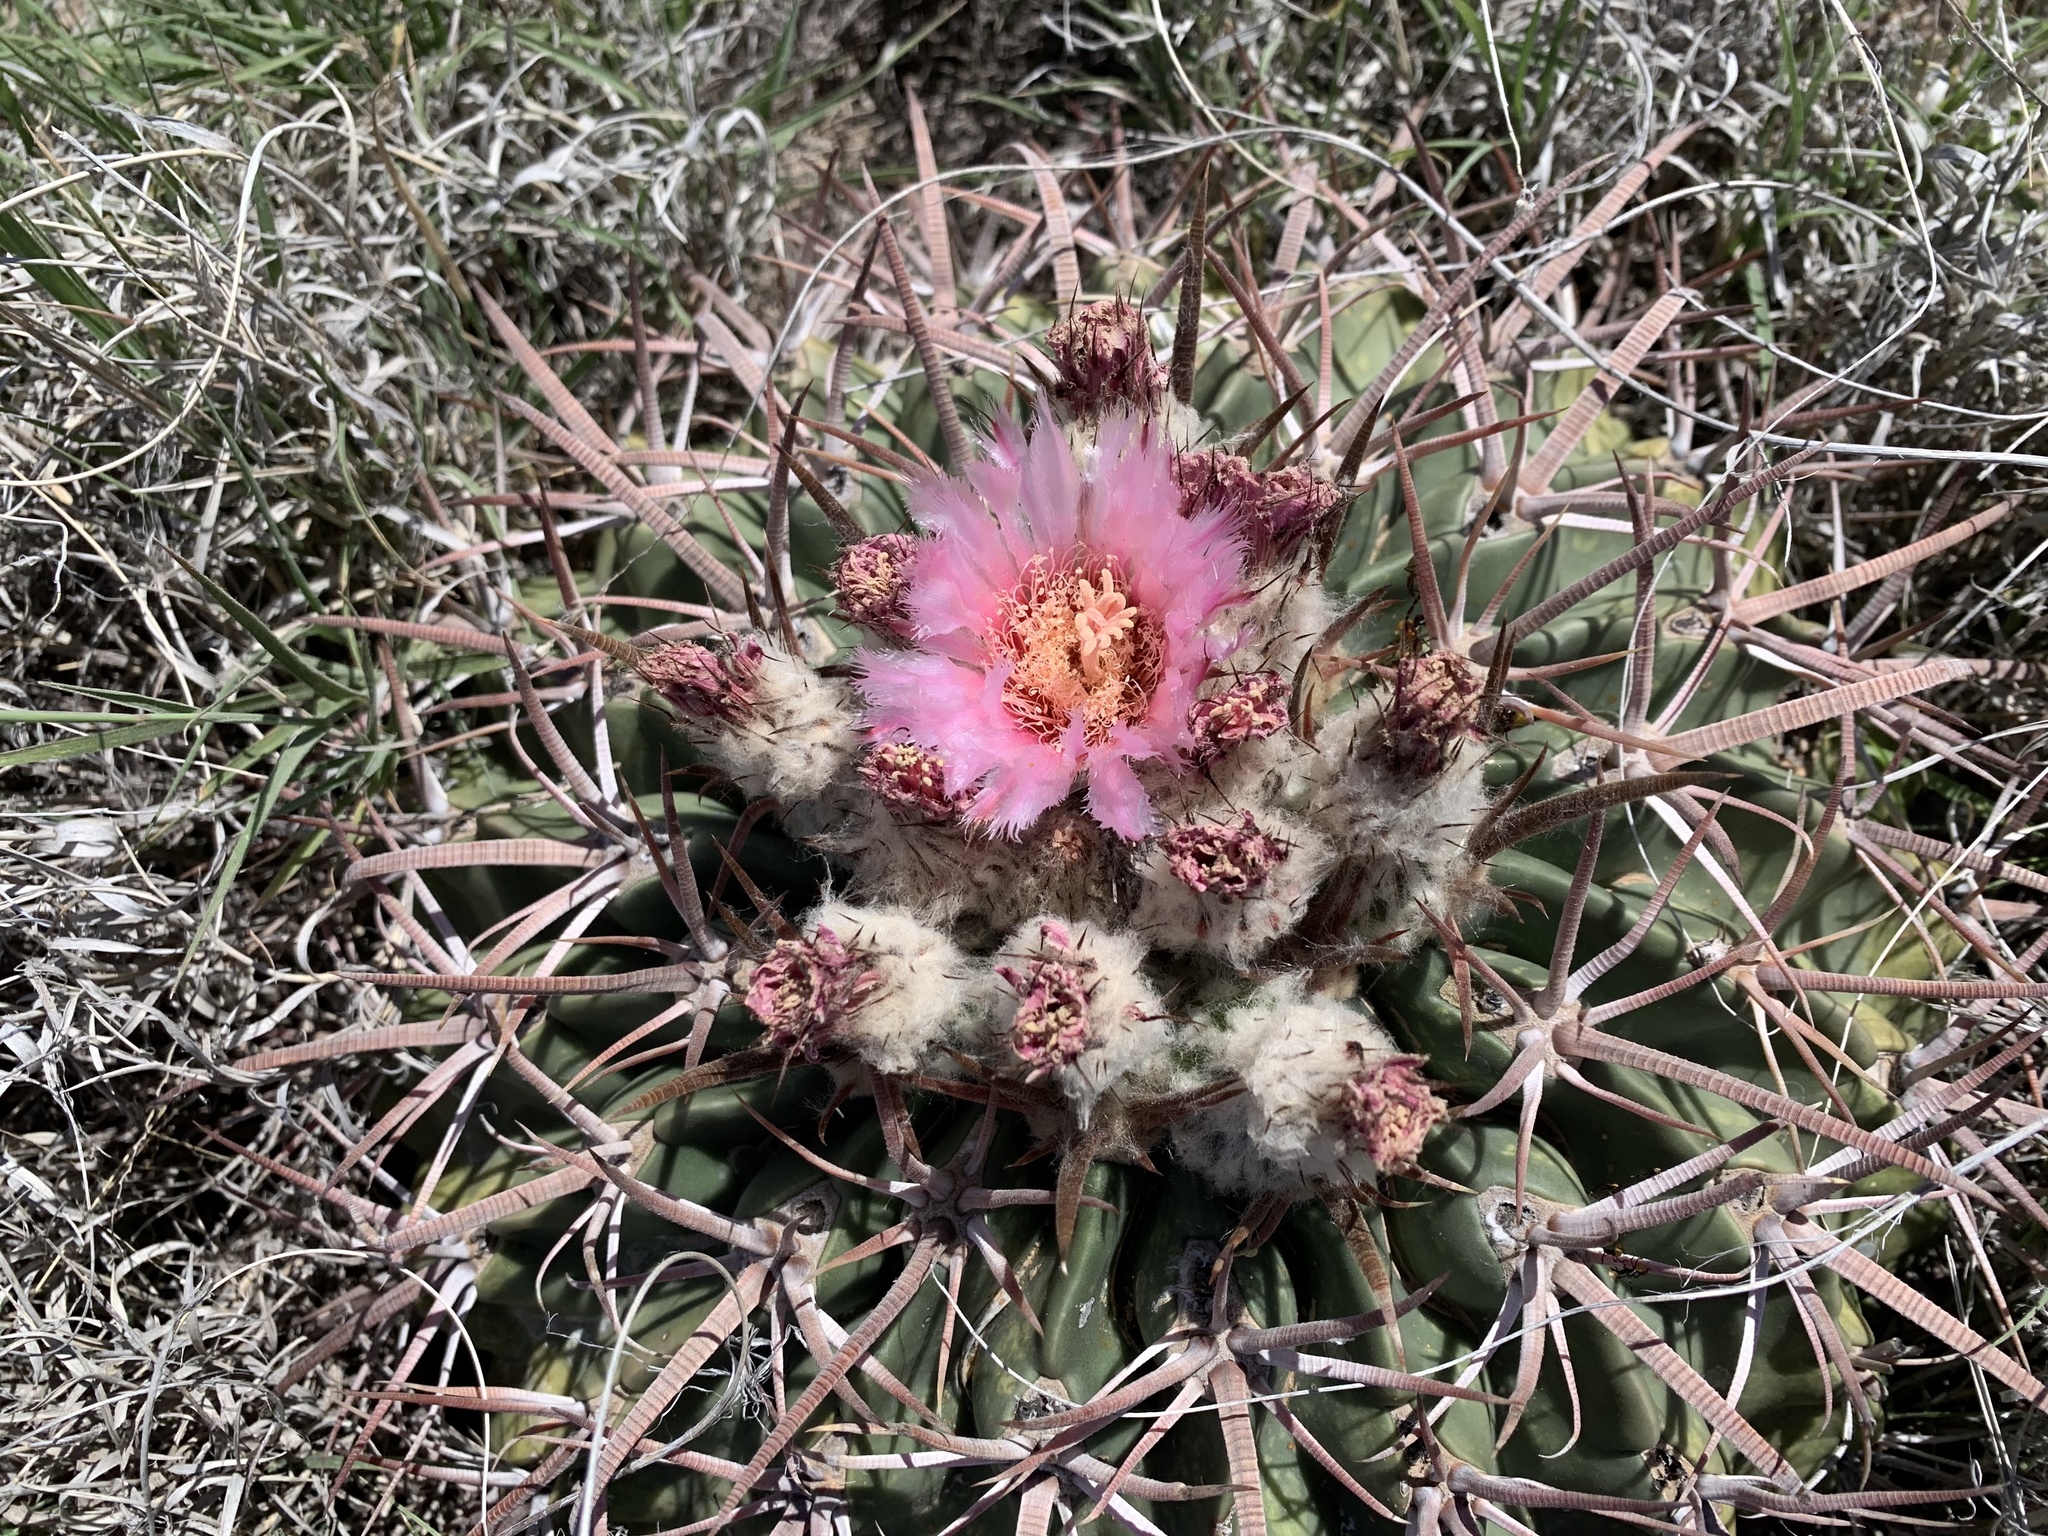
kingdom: Plantae
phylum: Tracheophyta
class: Magnoliopsida
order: Caryophyllales
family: Cactaceae
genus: Echinocactus
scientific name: Echinocactus texensis
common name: Devil's pincushion
